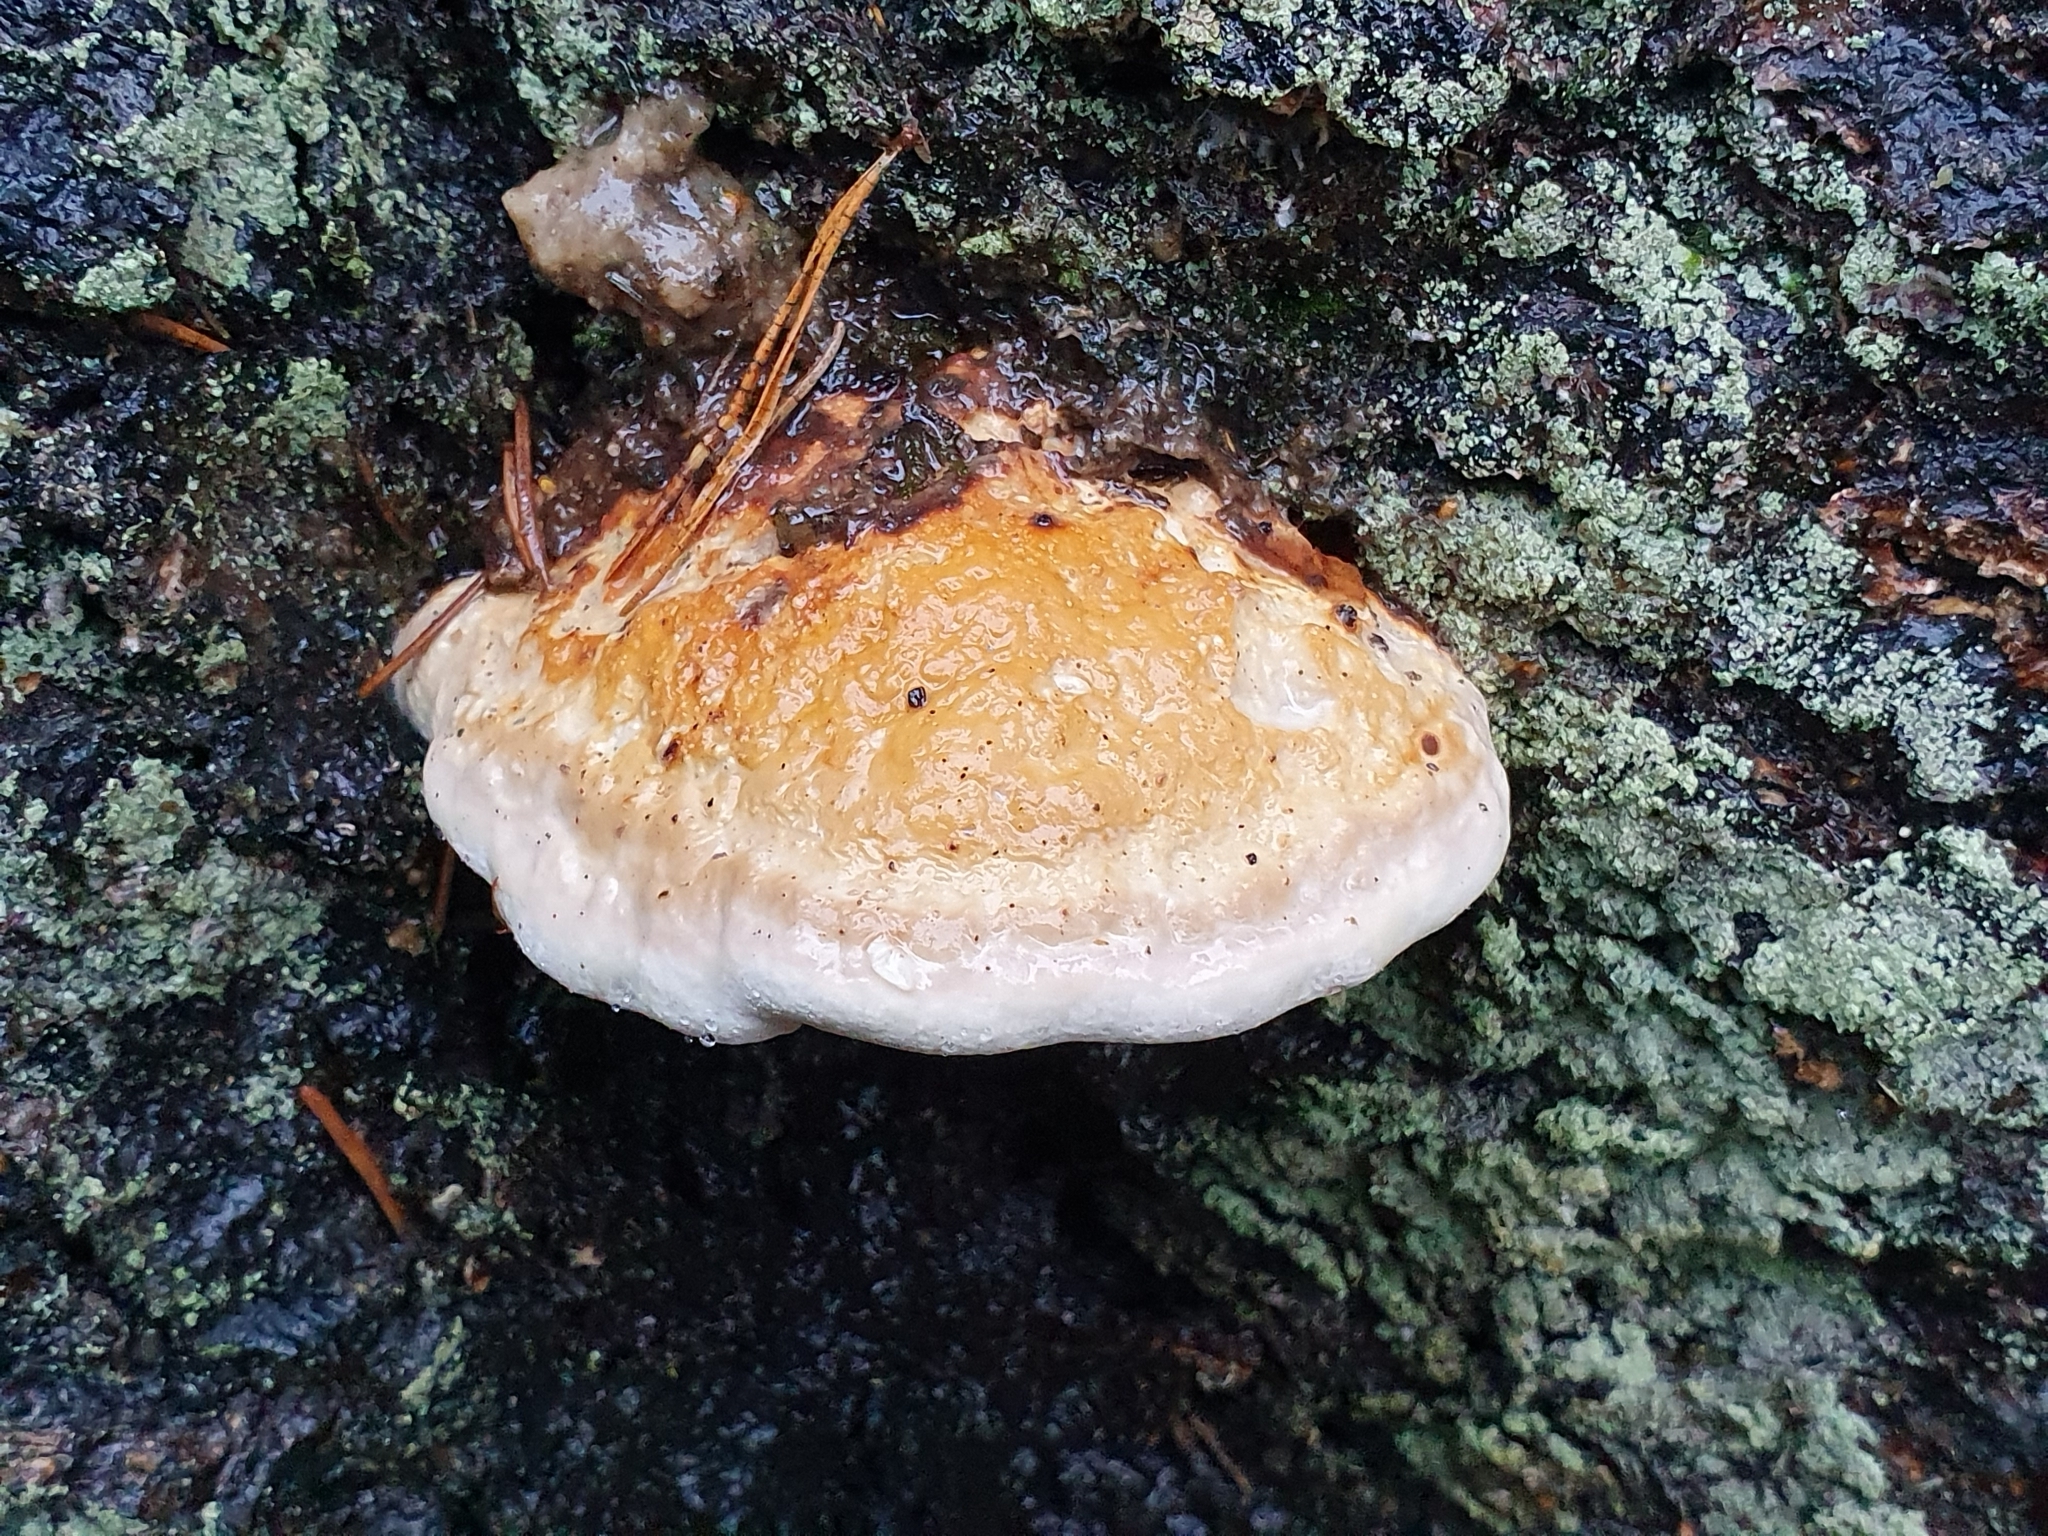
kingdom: Fungi
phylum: Basidiomycota
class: Agaricomycetes
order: Polyporales
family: Fomitopsidaceae
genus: Fomitopsis
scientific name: Fomitopsis pinicola
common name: Red-belted bracket
